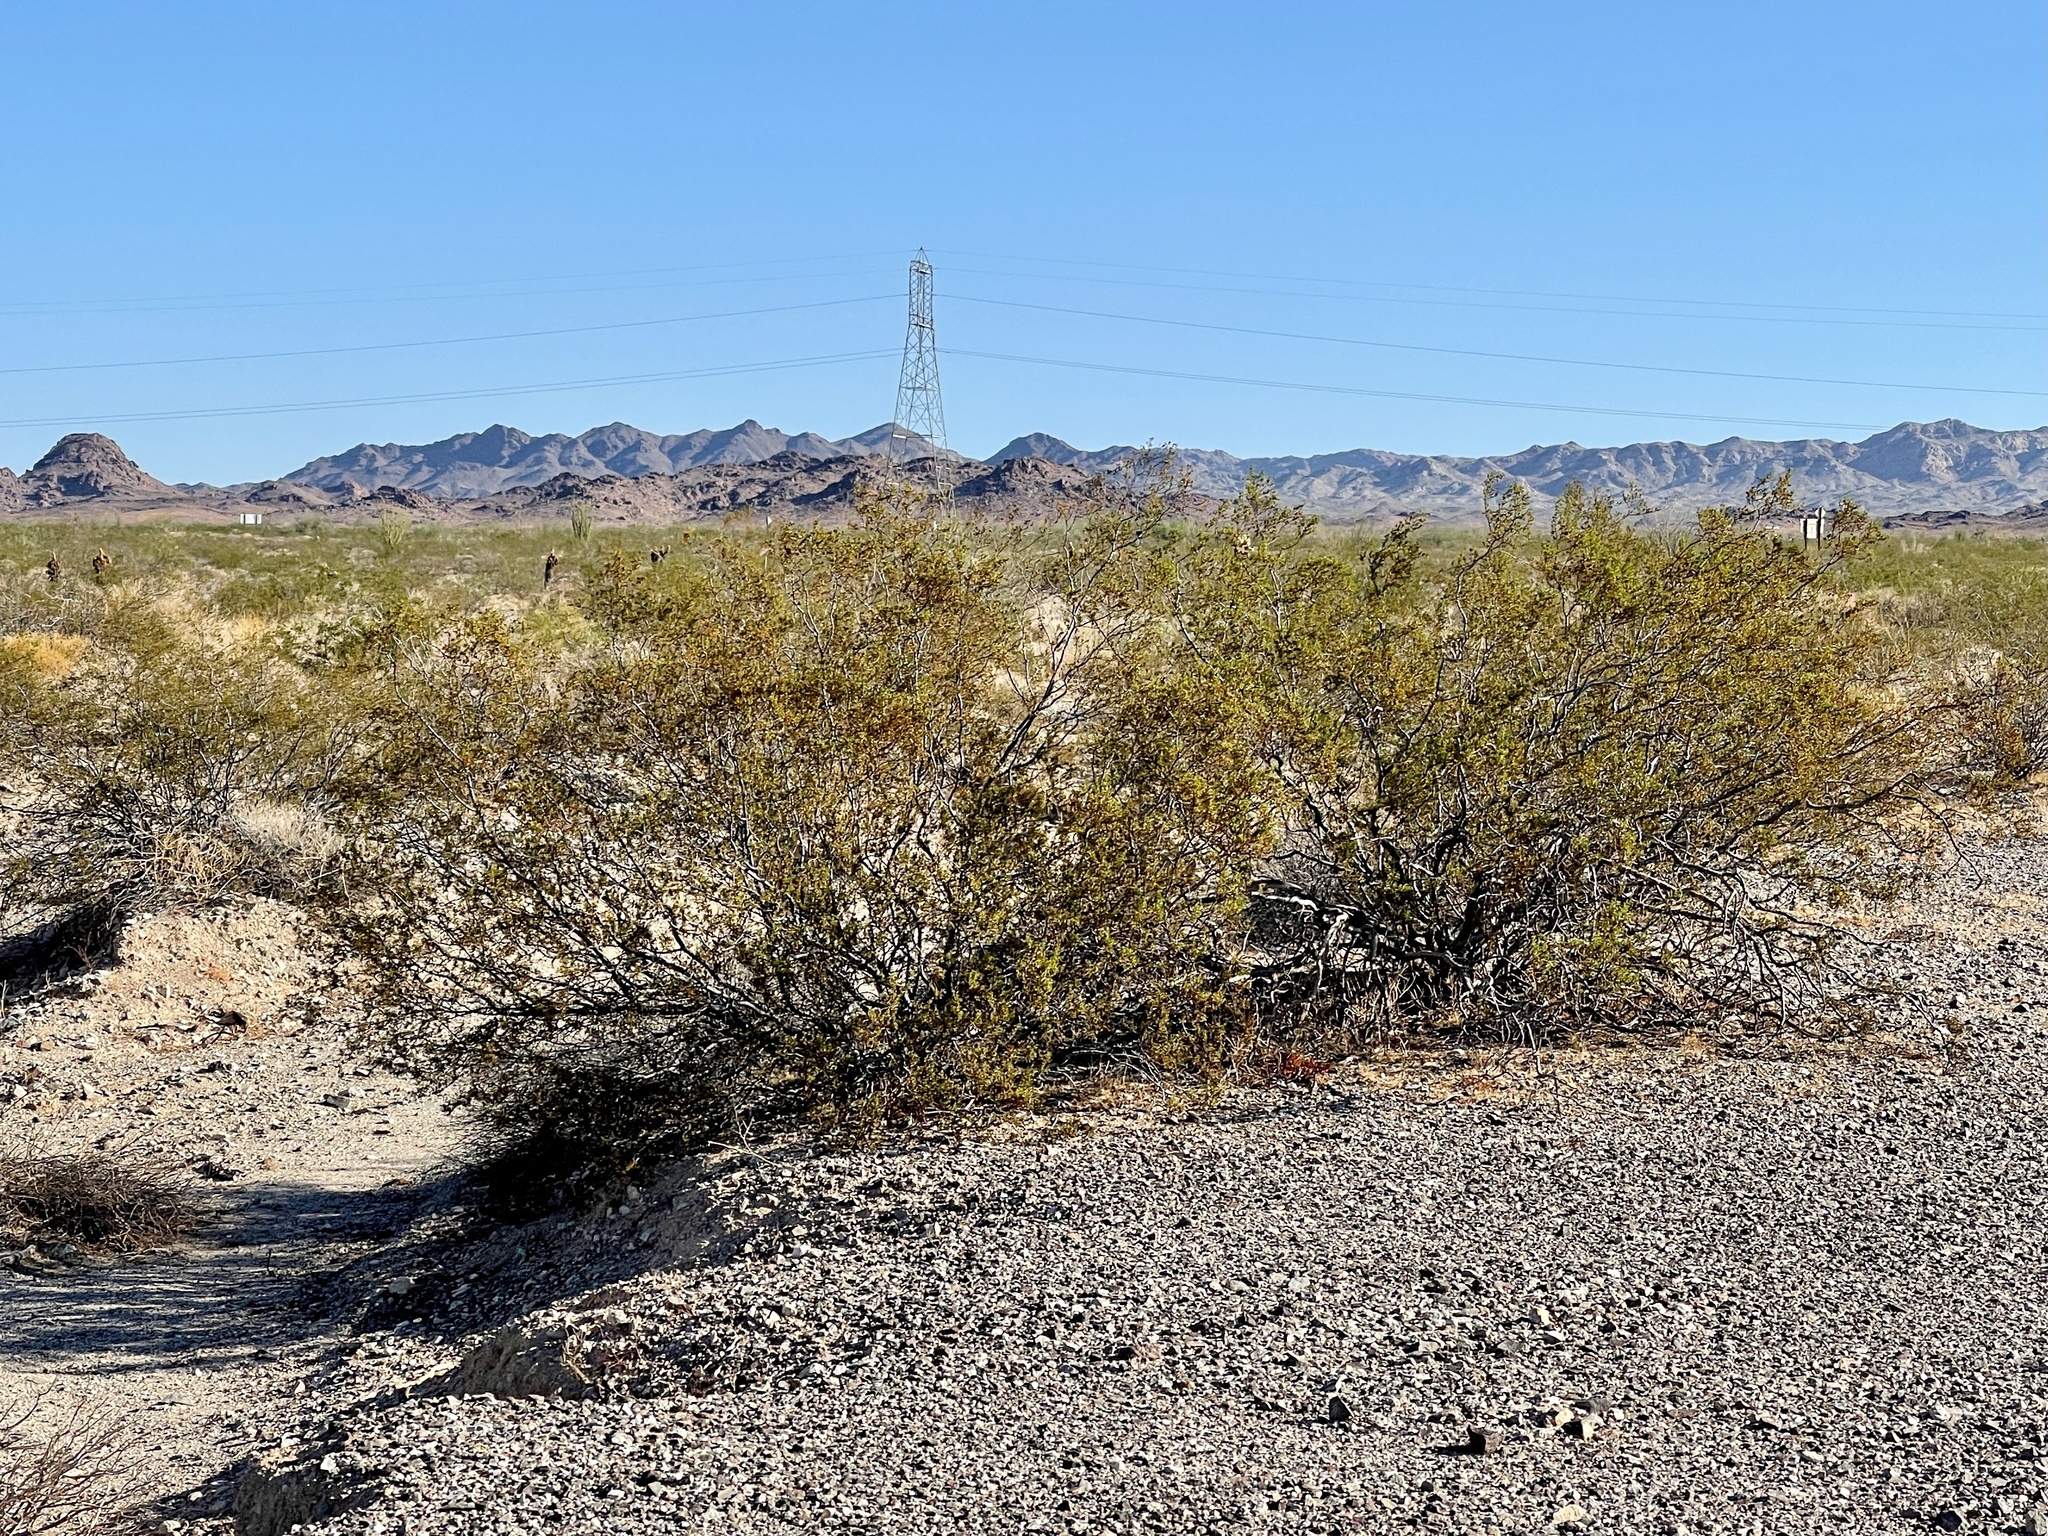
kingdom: Plantae
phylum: Tracheophyta
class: Magnoliopsida
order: Zygophyllales
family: Zygophyllaceae
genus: Larrea
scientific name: Larrea tridentata
